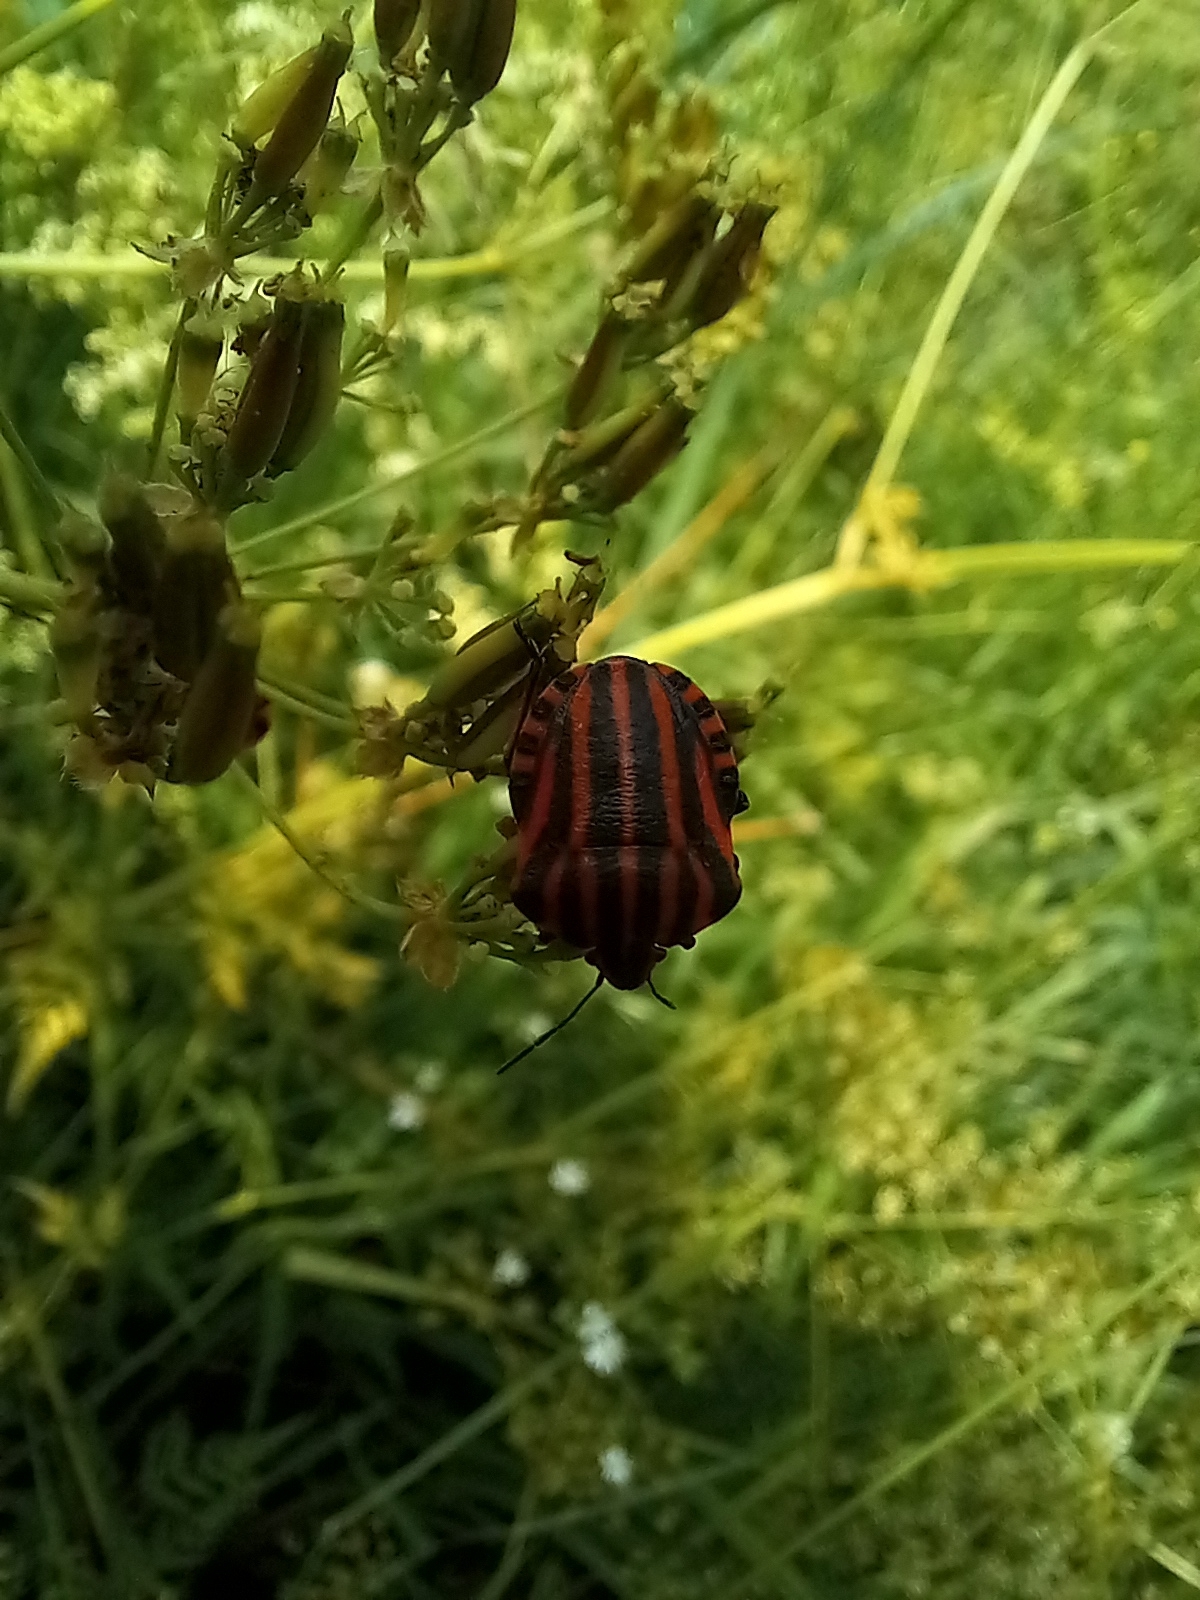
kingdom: Animalia
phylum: Arthropoda
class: Insecta
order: Hemiptera
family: Pentatomidae
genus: Graphosoma
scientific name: Graphosoma italicum
